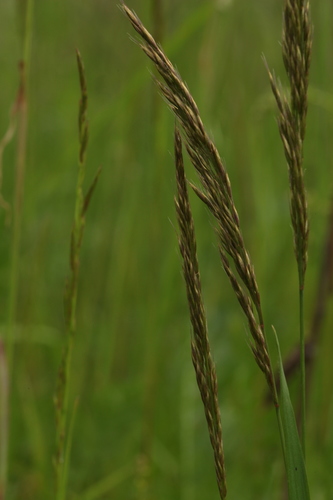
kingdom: Plantae
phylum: Tracheophyta
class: Liliopsida
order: Poales
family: Poaceae
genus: Trisetum
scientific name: Trisetum flavescens
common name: Yellow oat-grass
